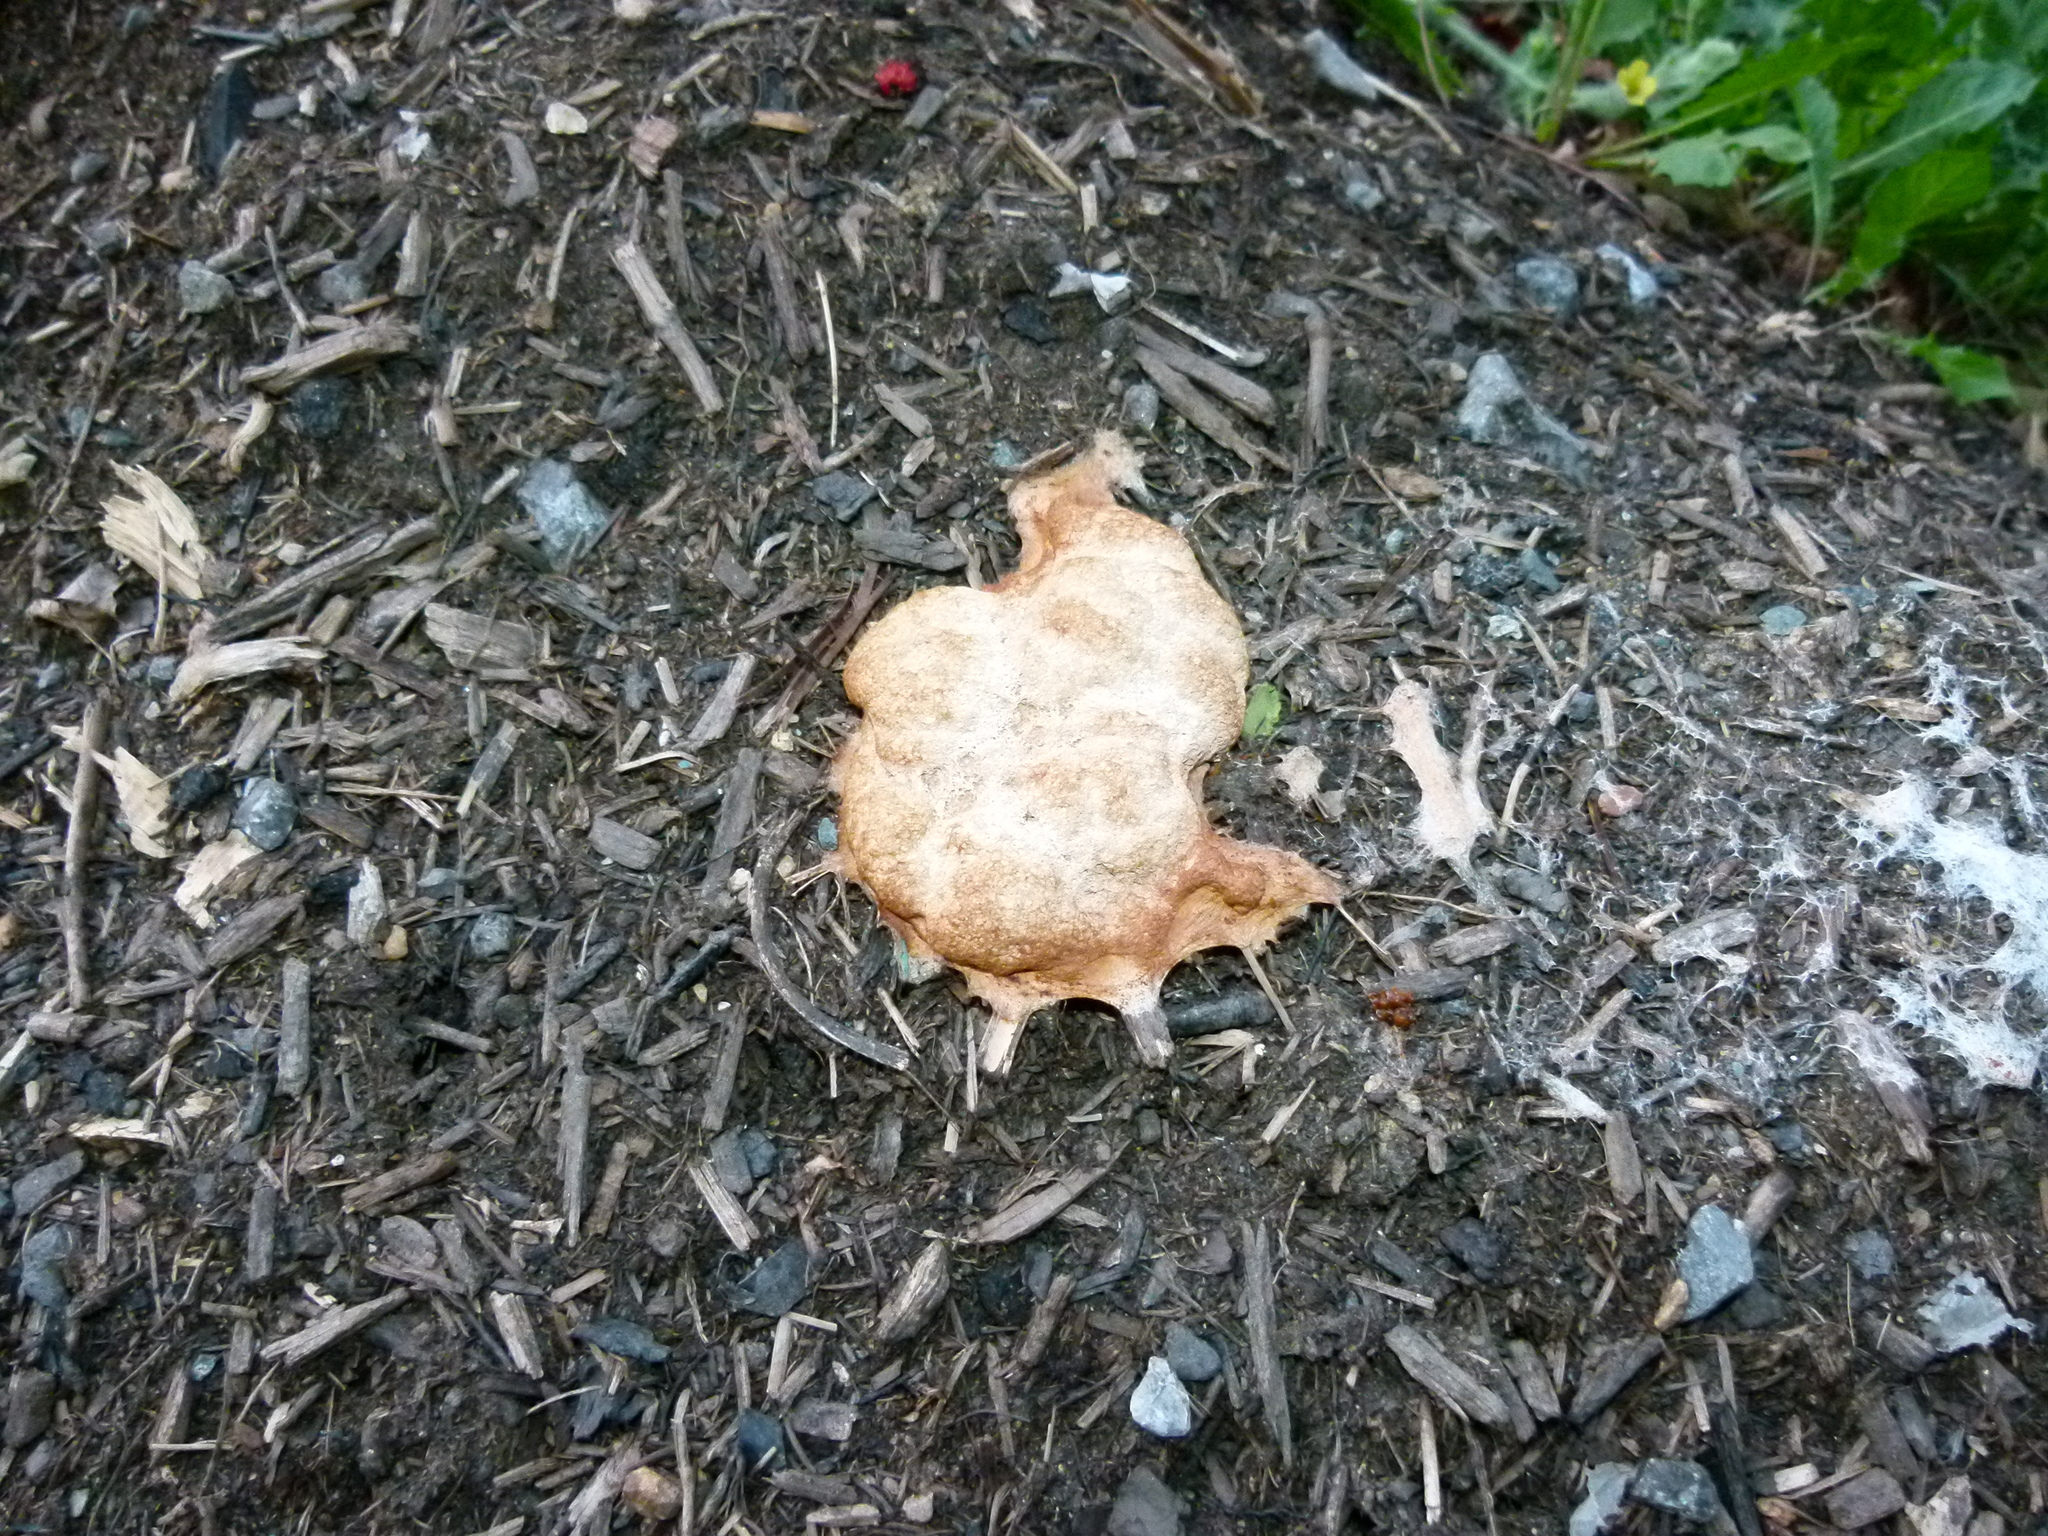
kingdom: Protozoa
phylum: Mycetozoa
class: Myxomycetes
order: Physarales
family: Physaraceae
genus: Fuligo
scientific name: Fuligo septica
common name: Dog vomit slime mold
